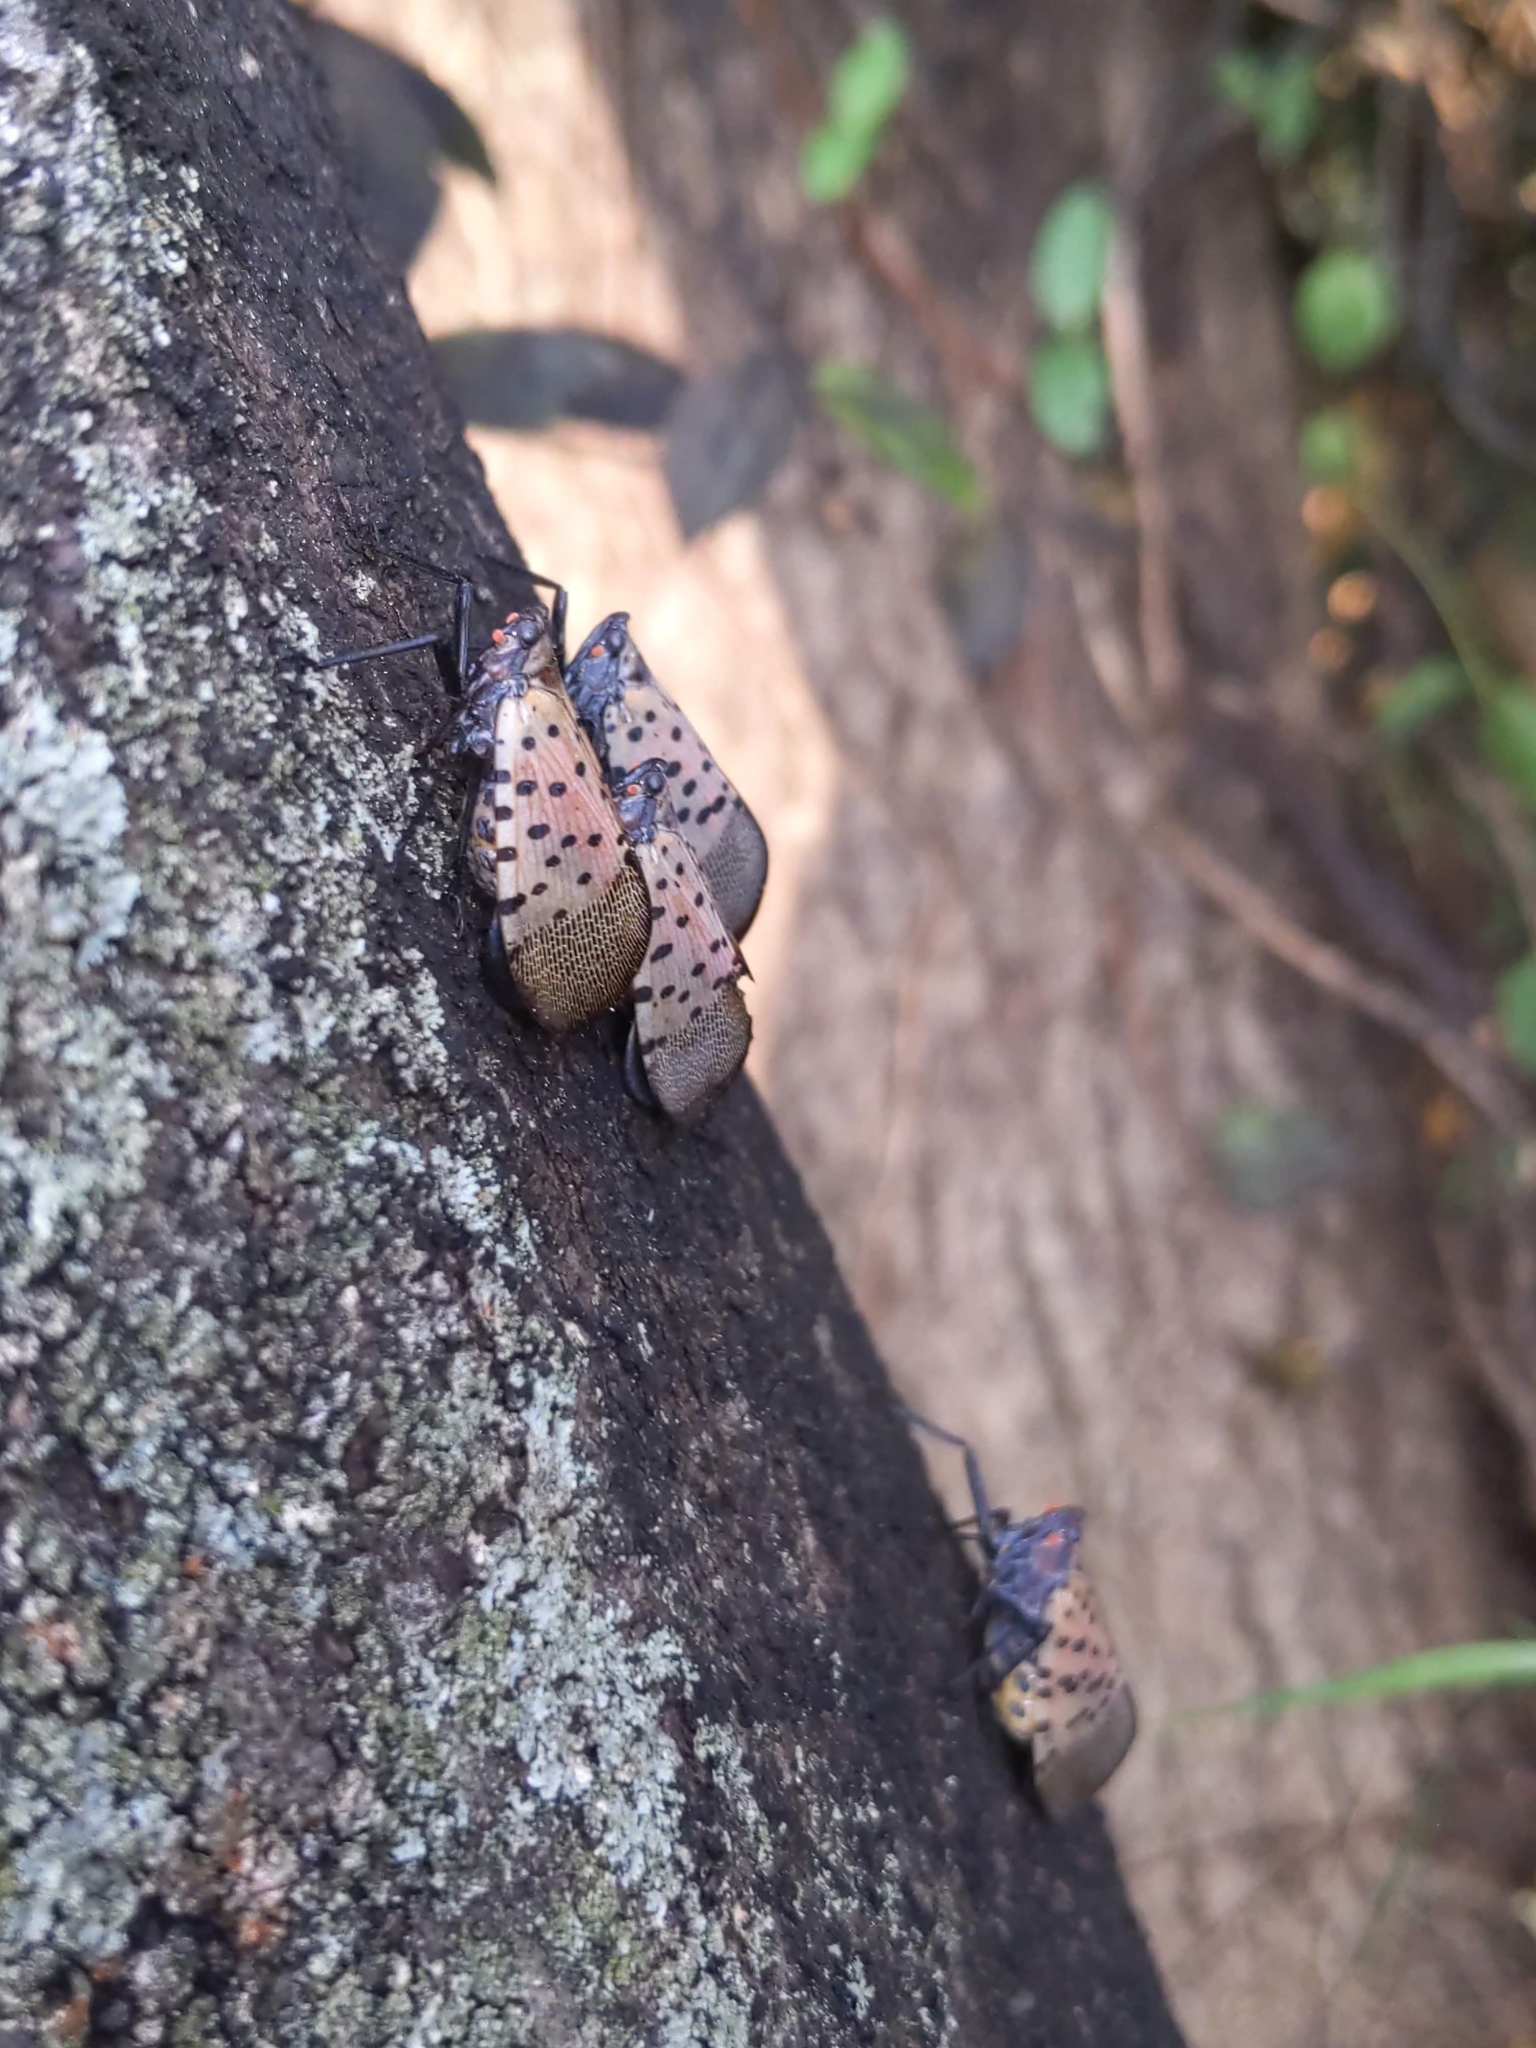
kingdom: Animalia
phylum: Arthropoda
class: Insecta
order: Hemiptera
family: Fulgoridae
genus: Lycorma
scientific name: Lycorma delicatula
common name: Spotted lanternfly
